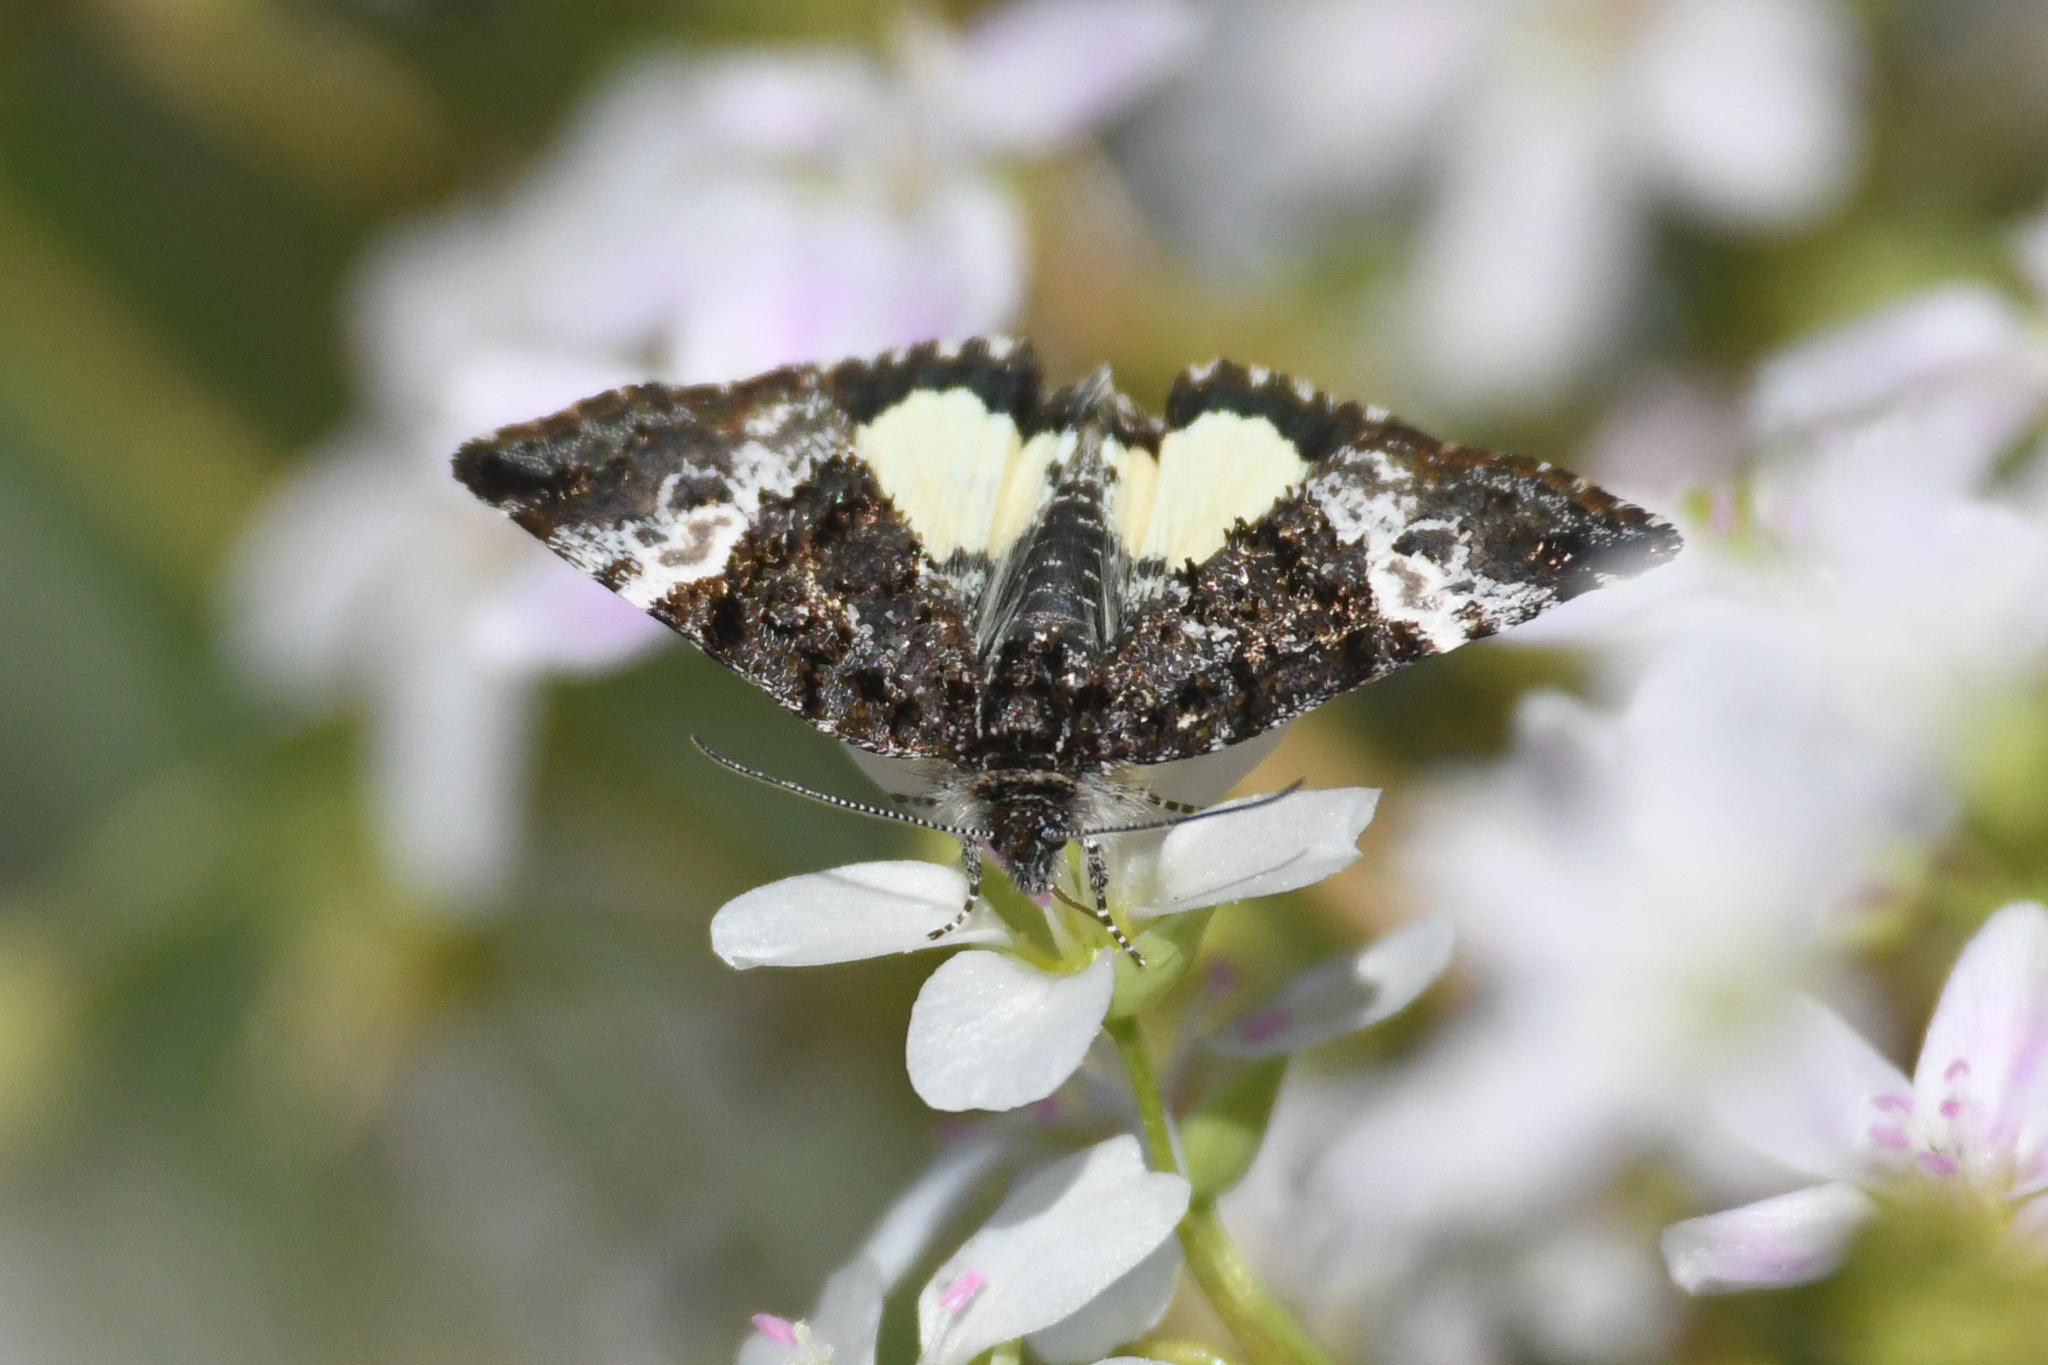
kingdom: Animalia
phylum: Arthropoda
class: Insecta
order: Lepidoptera
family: Noctuidae
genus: Annaphila
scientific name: Annaphila diva
